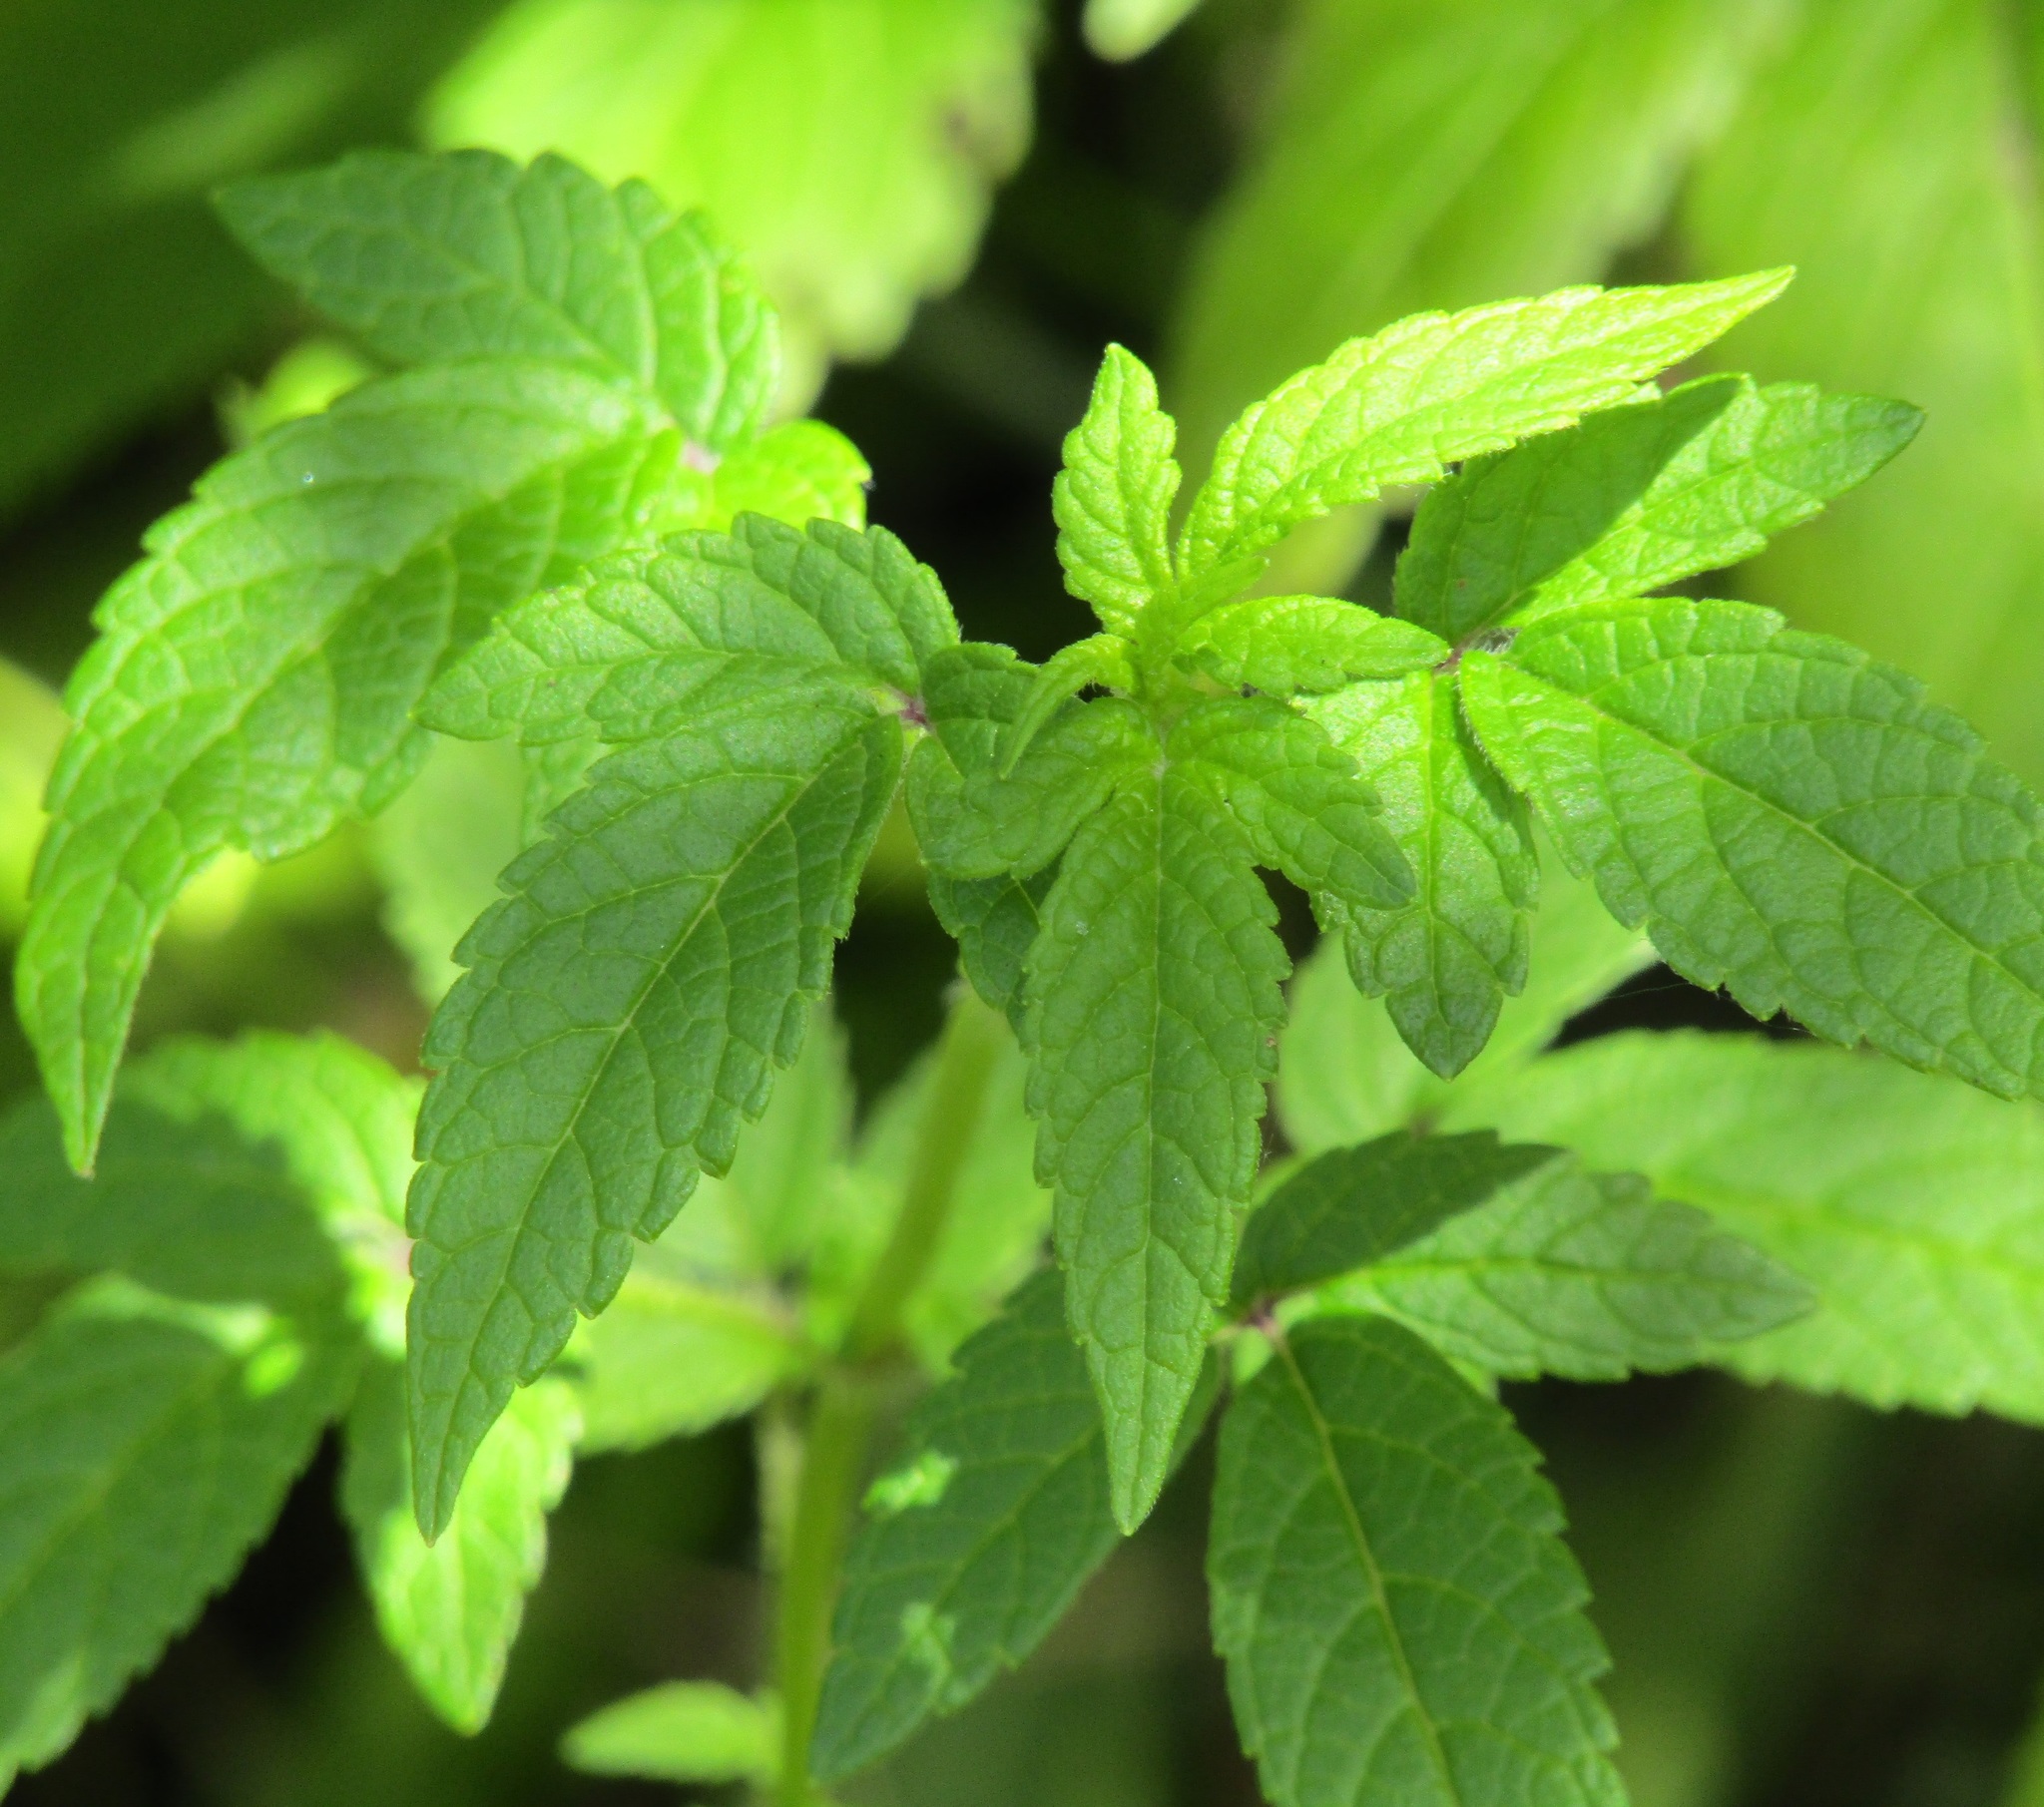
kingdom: Plantae
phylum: Tracheophyta
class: Magnoliopsida
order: Lamiales
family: Lamiaceae
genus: Cedronella
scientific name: Cedronella canariensis
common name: Canary islands balm
